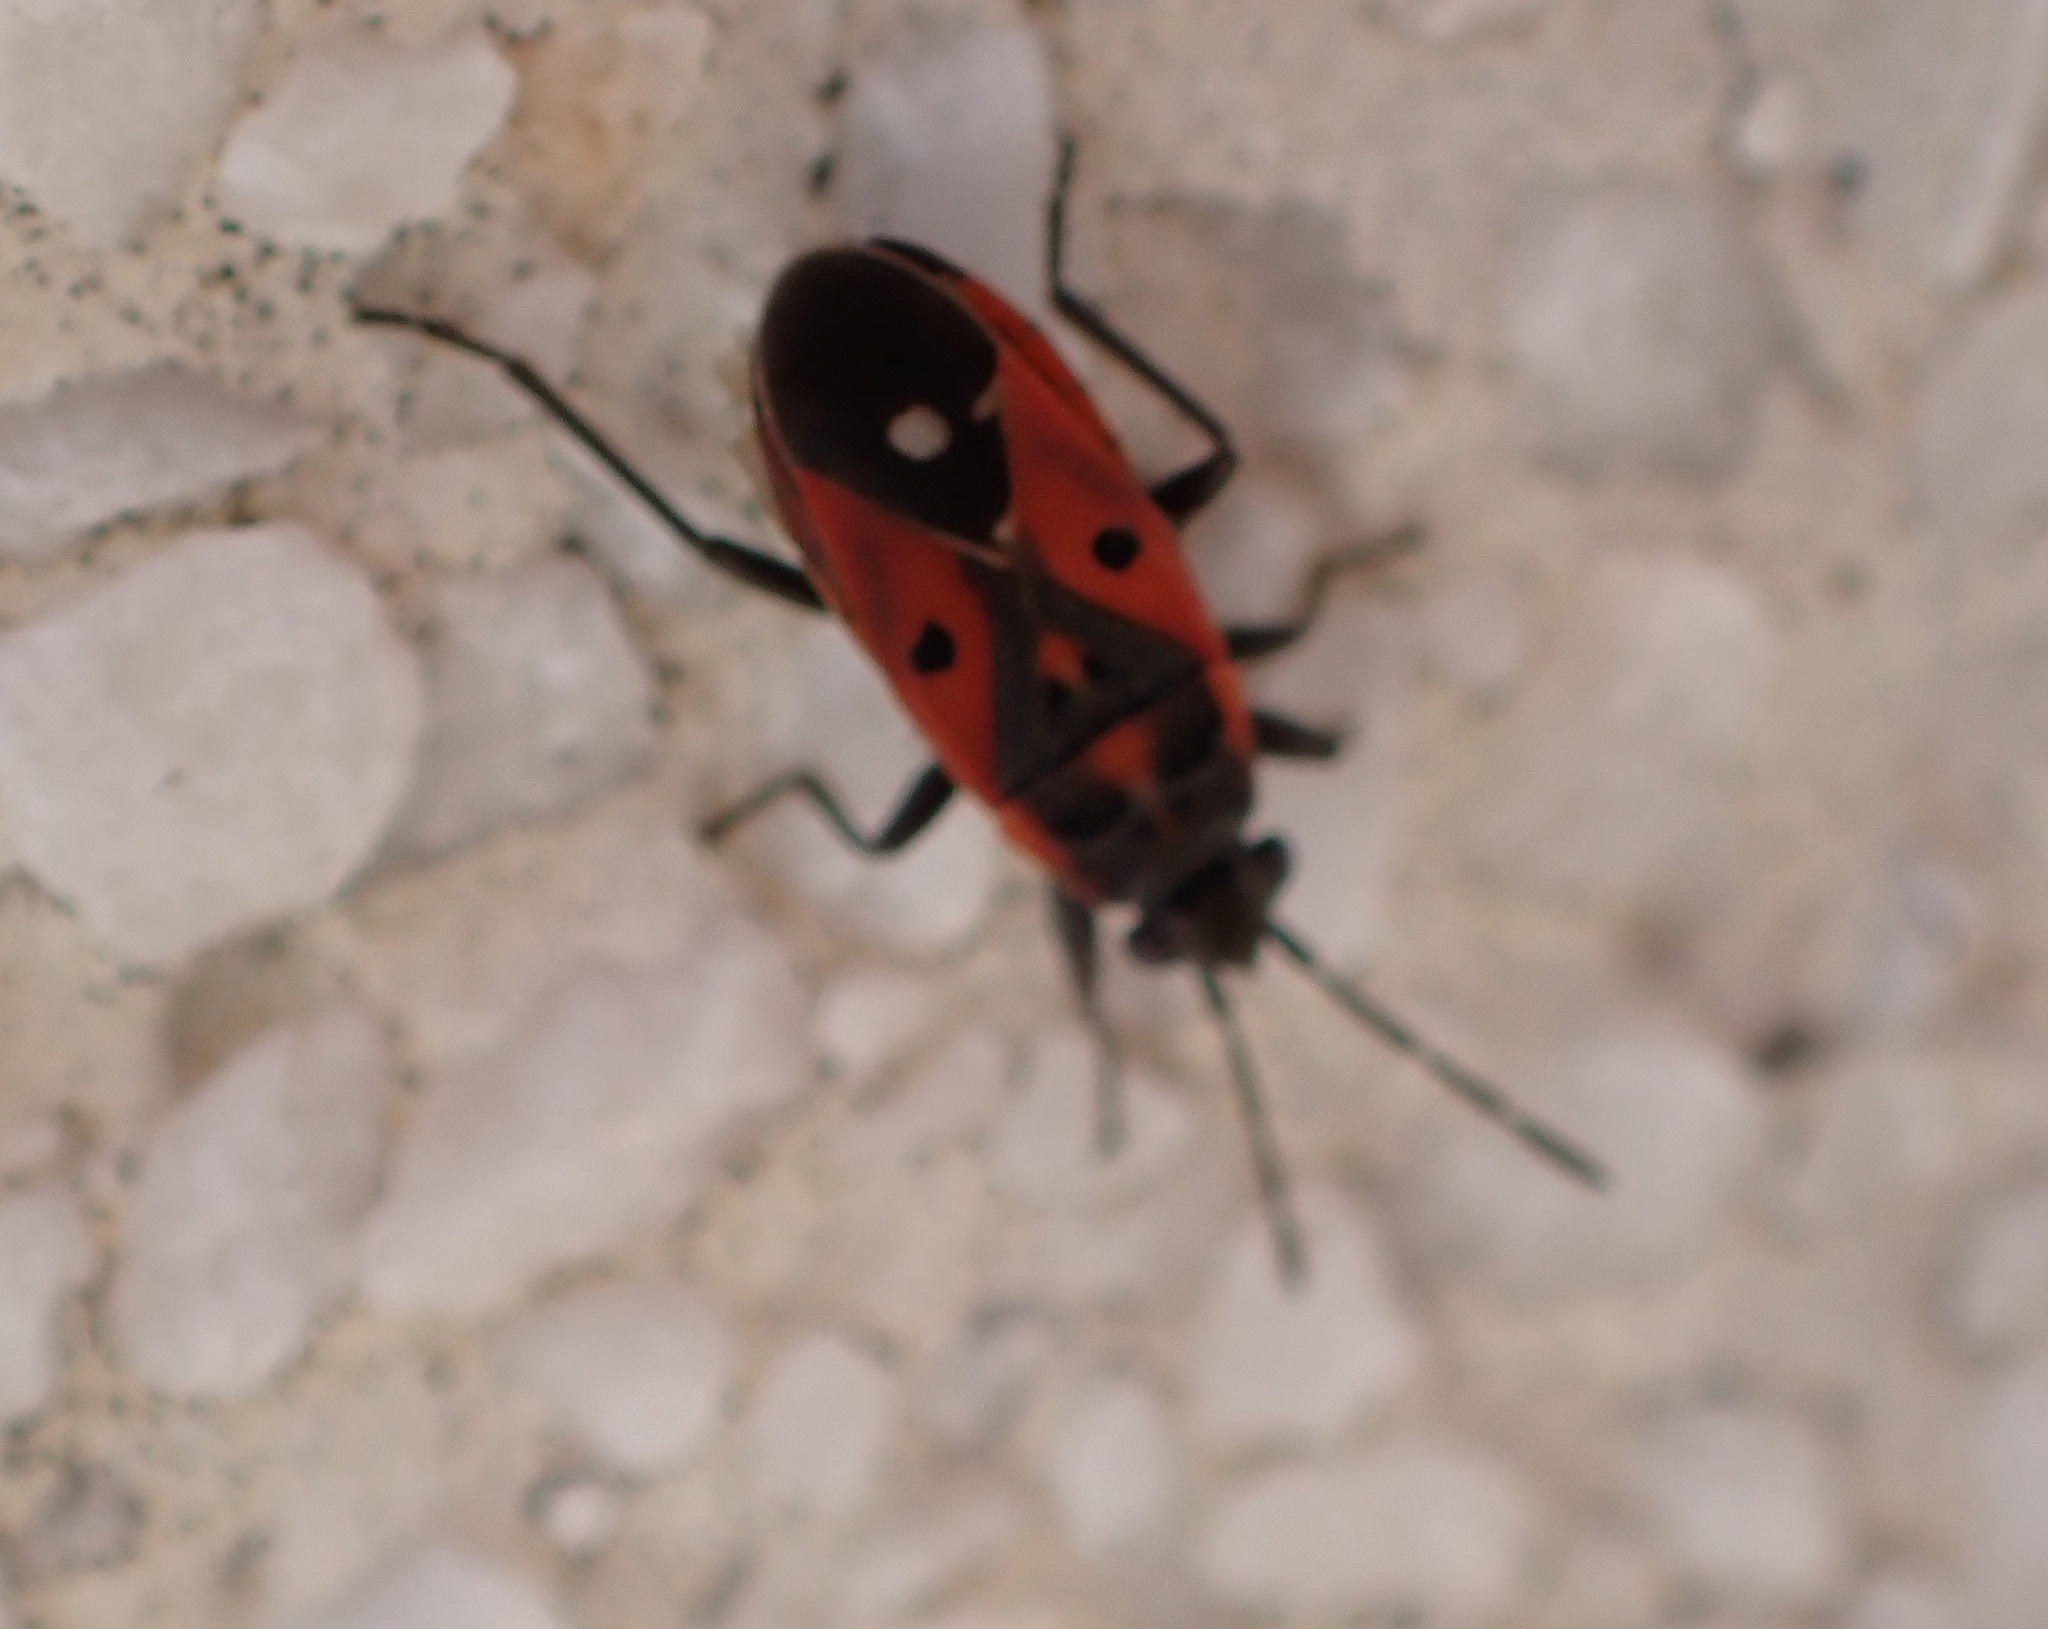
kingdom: Animalia
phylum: Arthropoda
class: Insecta
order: Hemiptera
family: Lygaeidae
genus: Melanocoryphus
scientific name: Melanocoryphus tristrami
